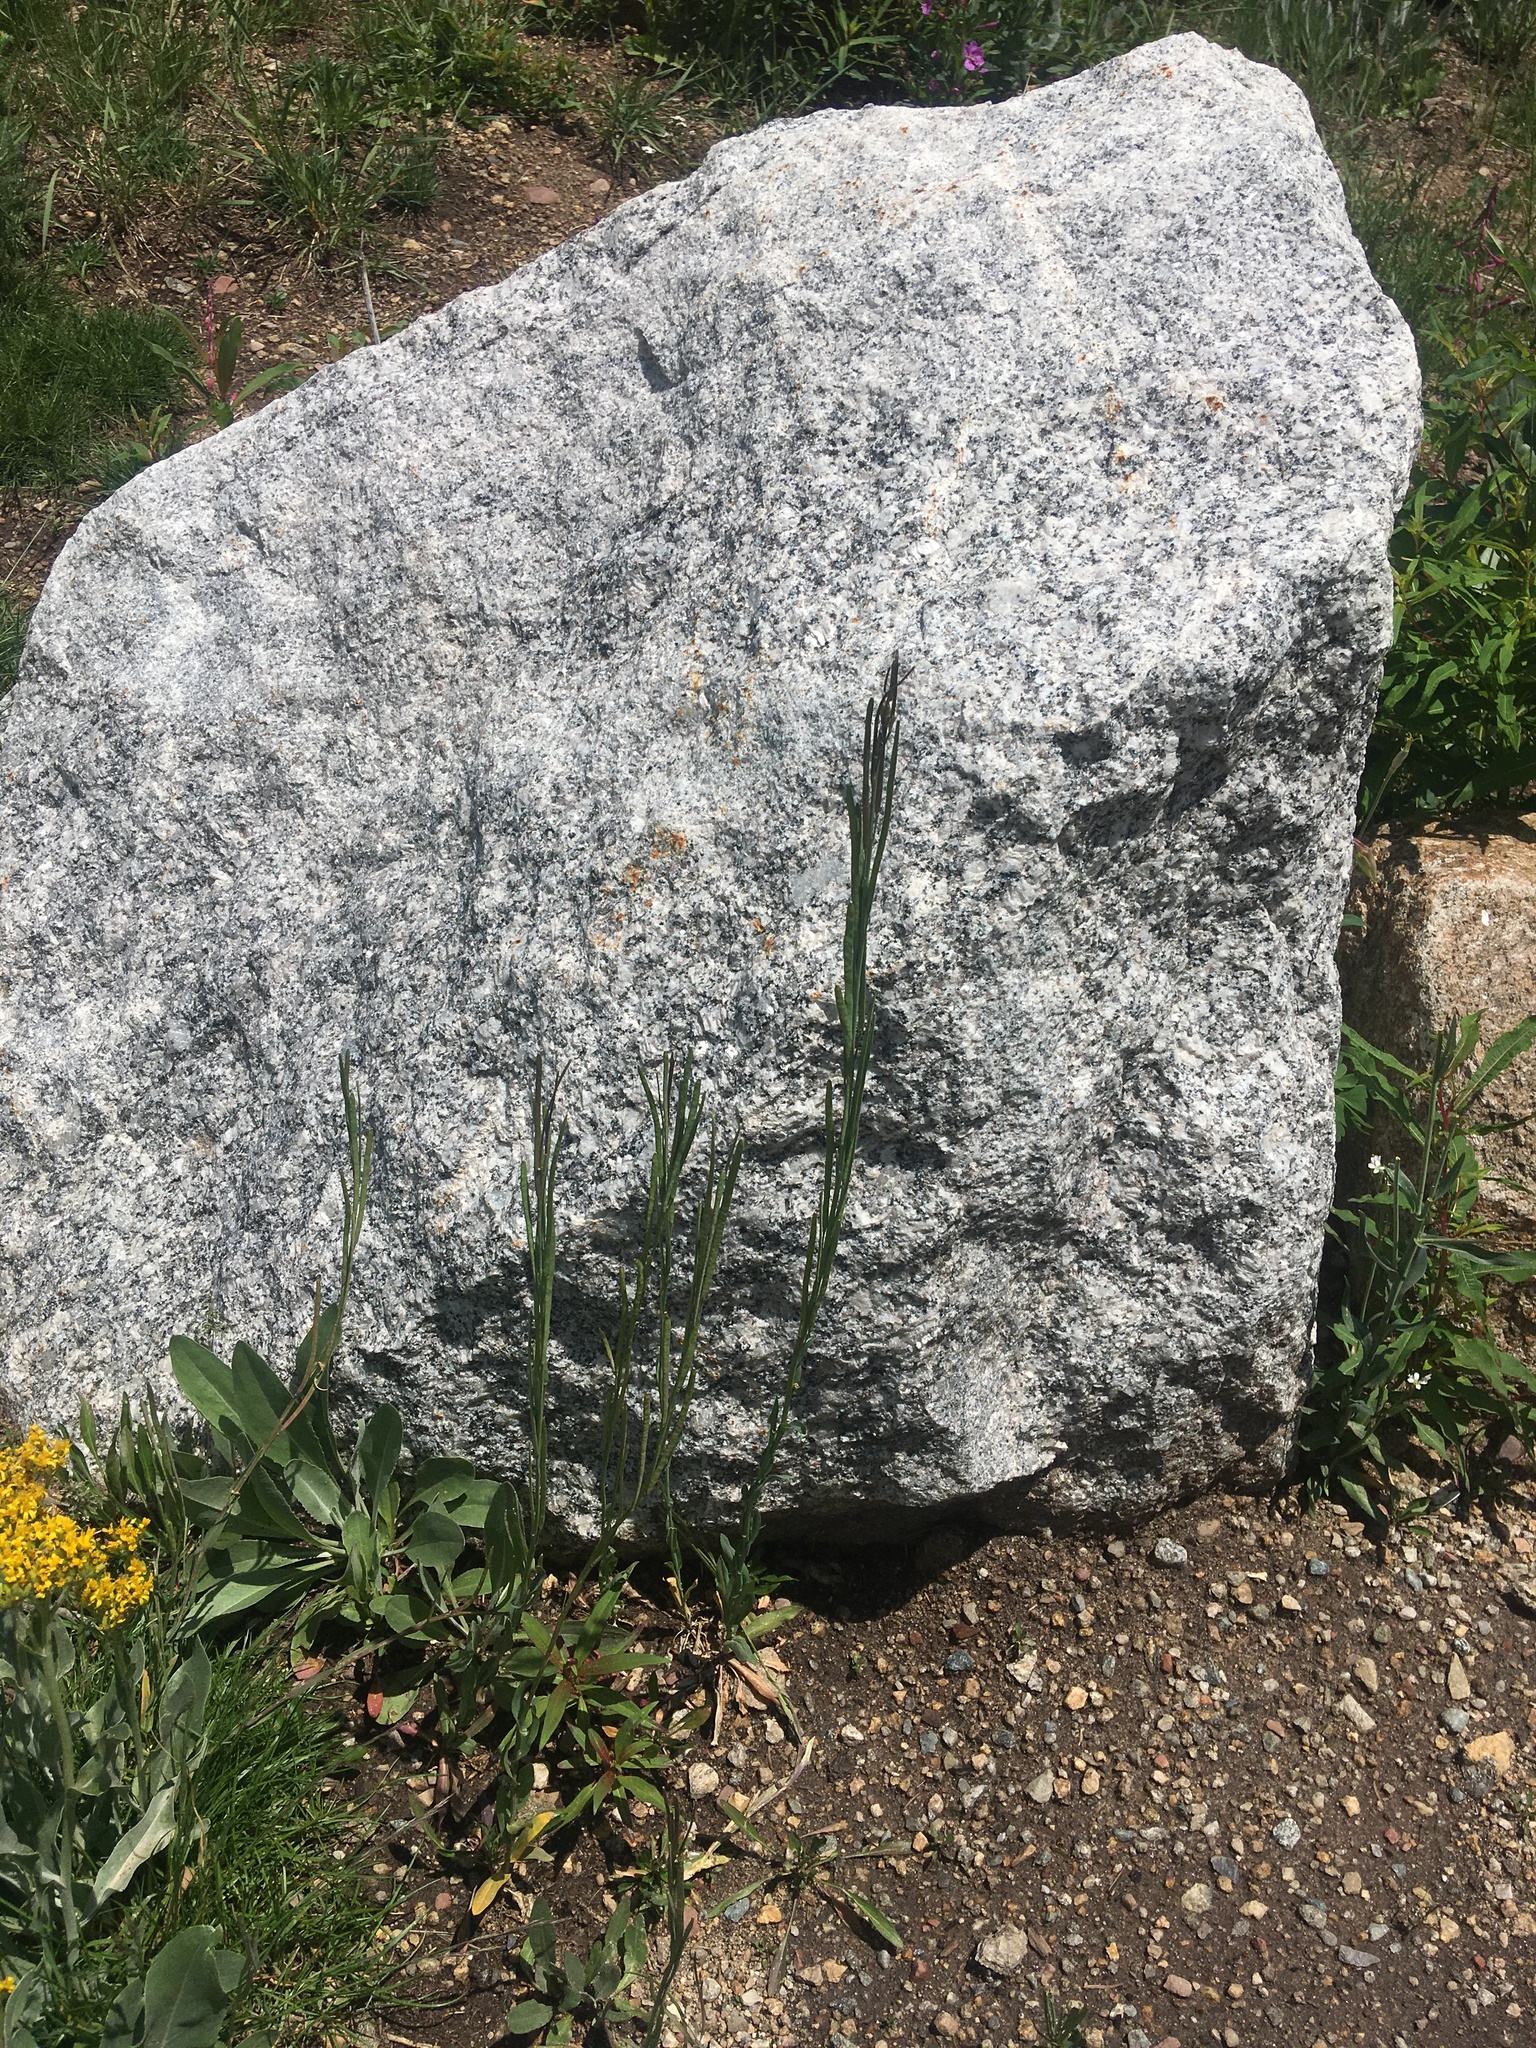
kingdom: Plantae
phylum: Tracheophyta
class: Magnoliopsida
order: Brassicales
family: Brassicaceae
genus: Boechera
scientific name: Boechera stricta
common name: Canadian rockcress
